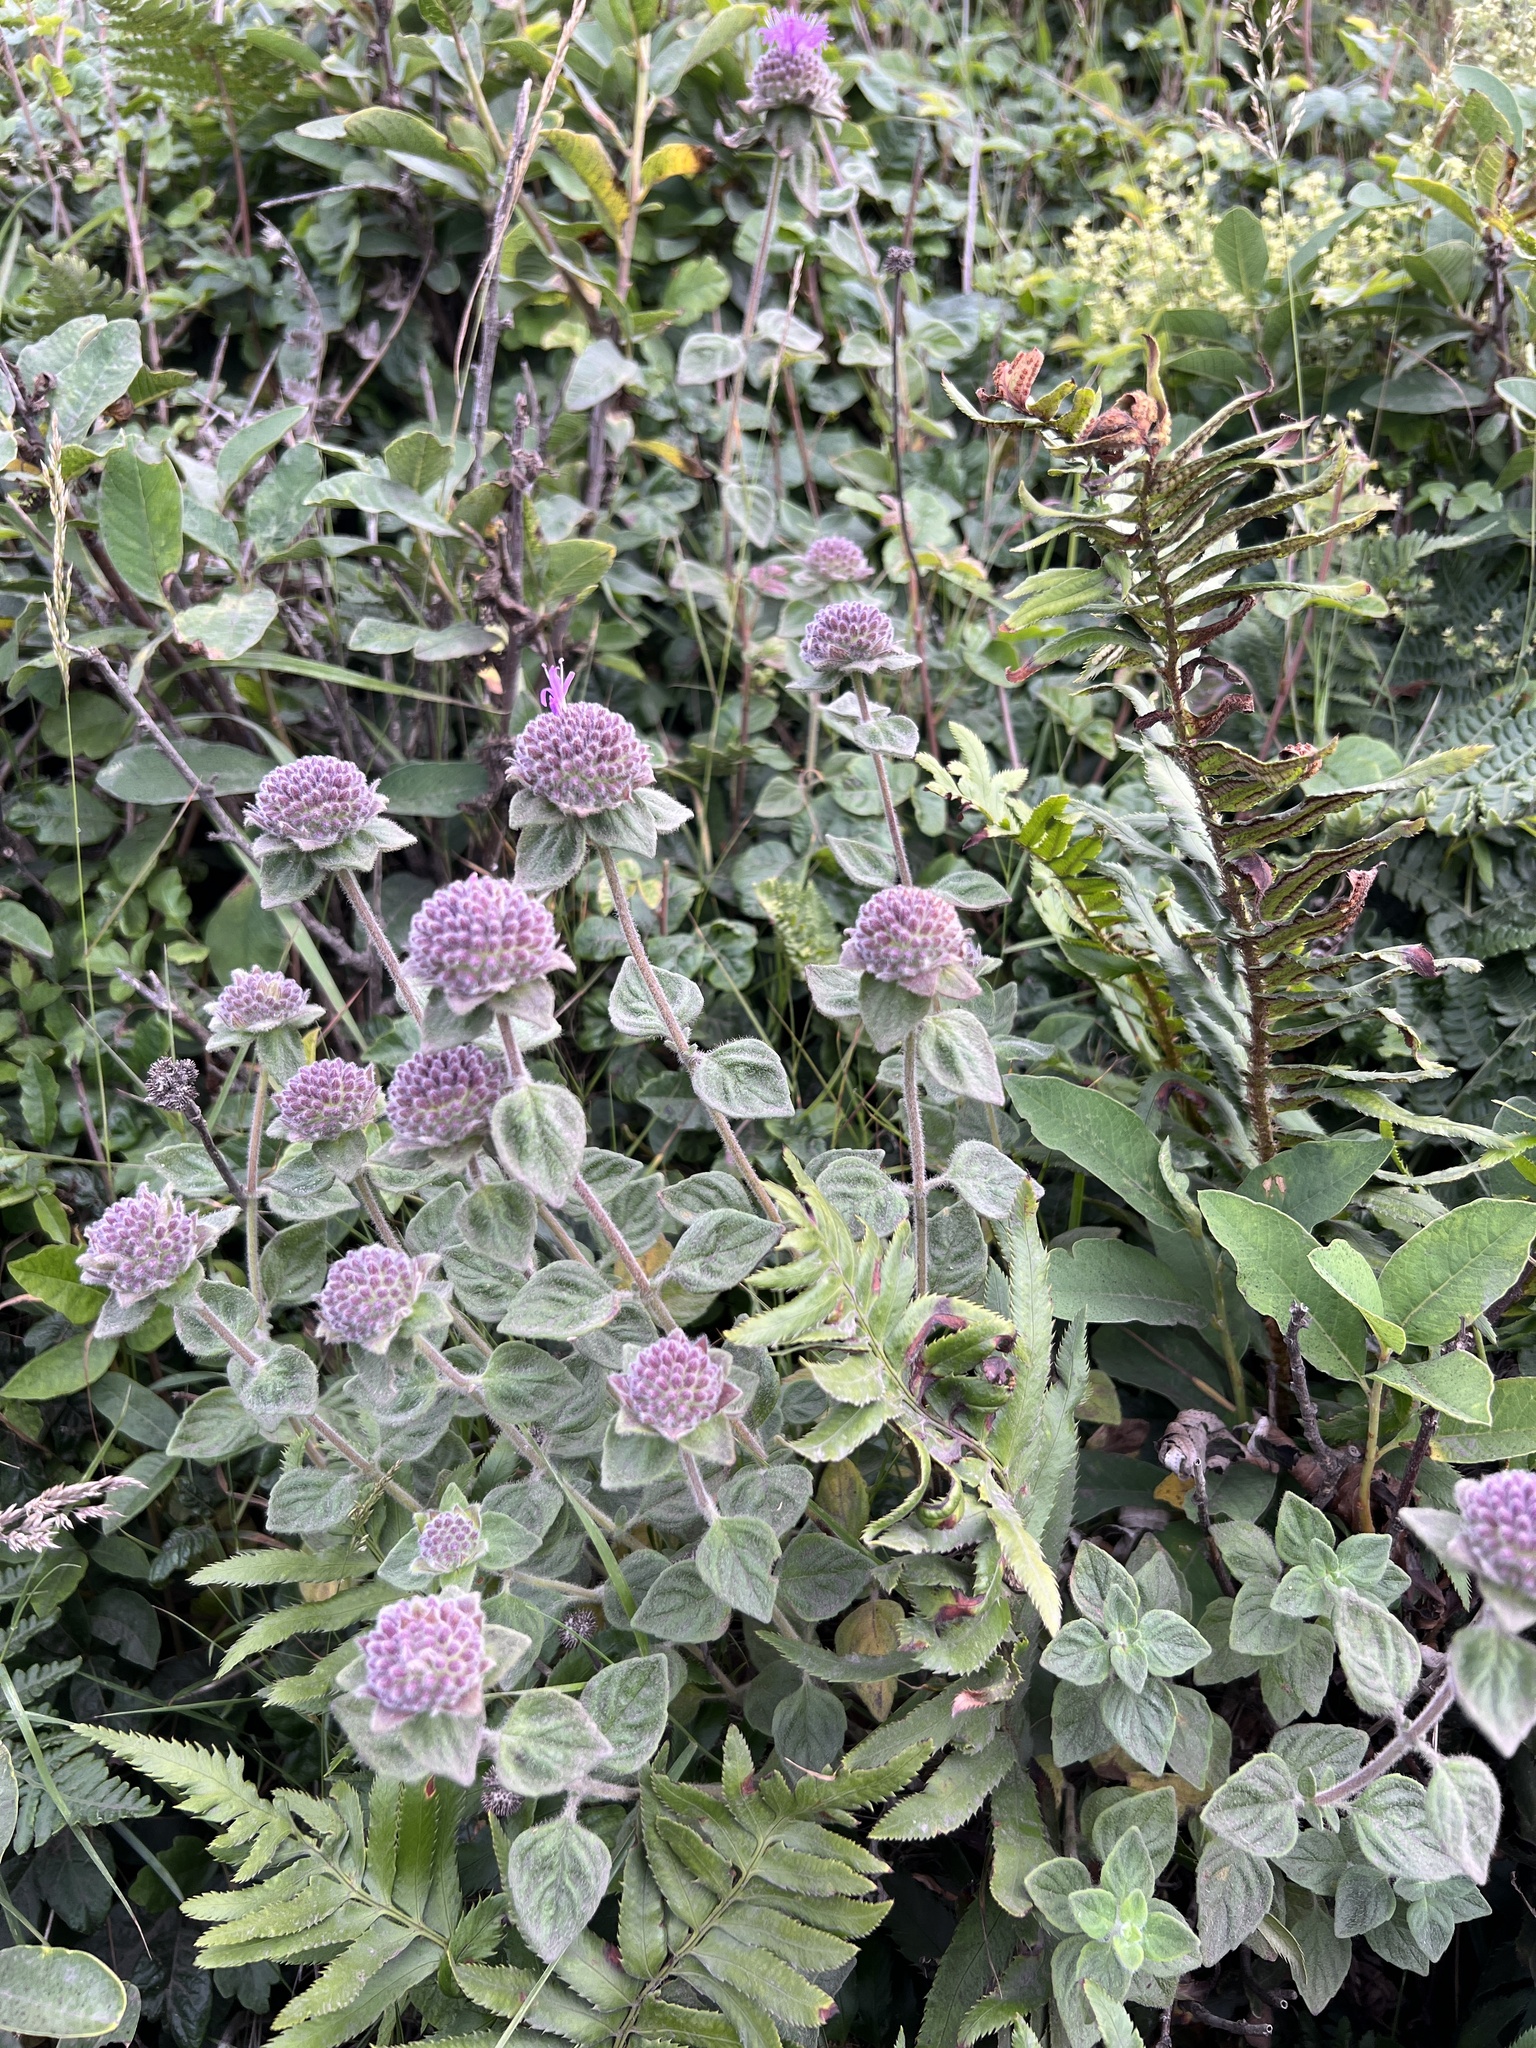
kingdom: Plantae
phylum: Tracheophyta
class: Magnoliopsida
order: Lamiales
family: Lamiaceae
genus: Monardella
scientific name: Monardella odoratissima
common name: Pacific monardella
